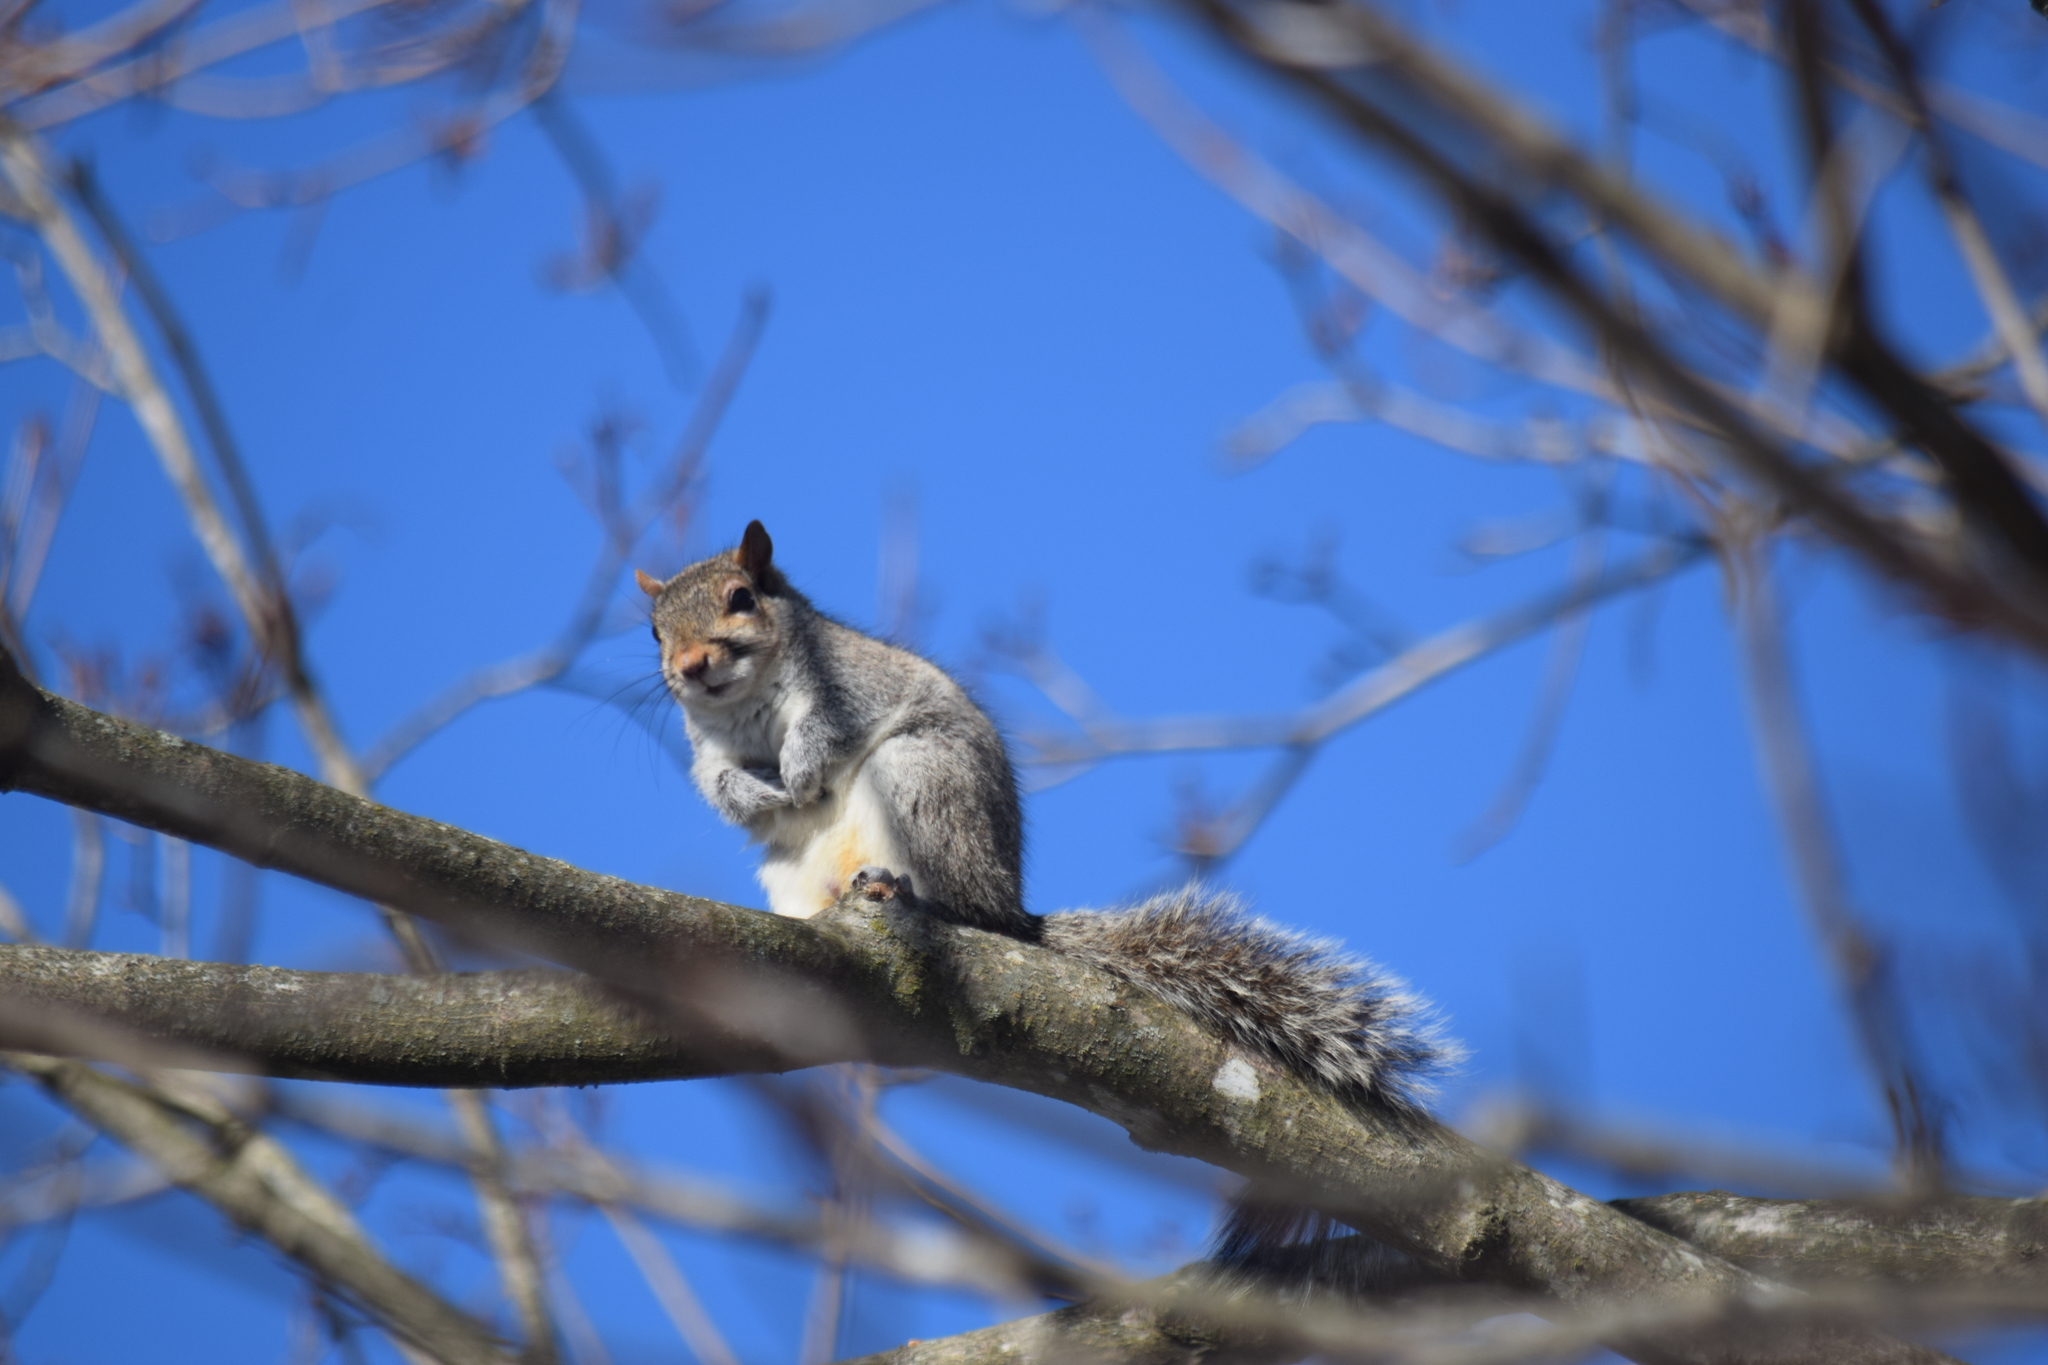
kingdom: Animalia
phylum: Chordata
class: Mammalia
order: Rodentia
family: Sciuridae
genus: Sciurus
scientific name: Sciurus carolinensis
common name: Eastern gray squirrel
